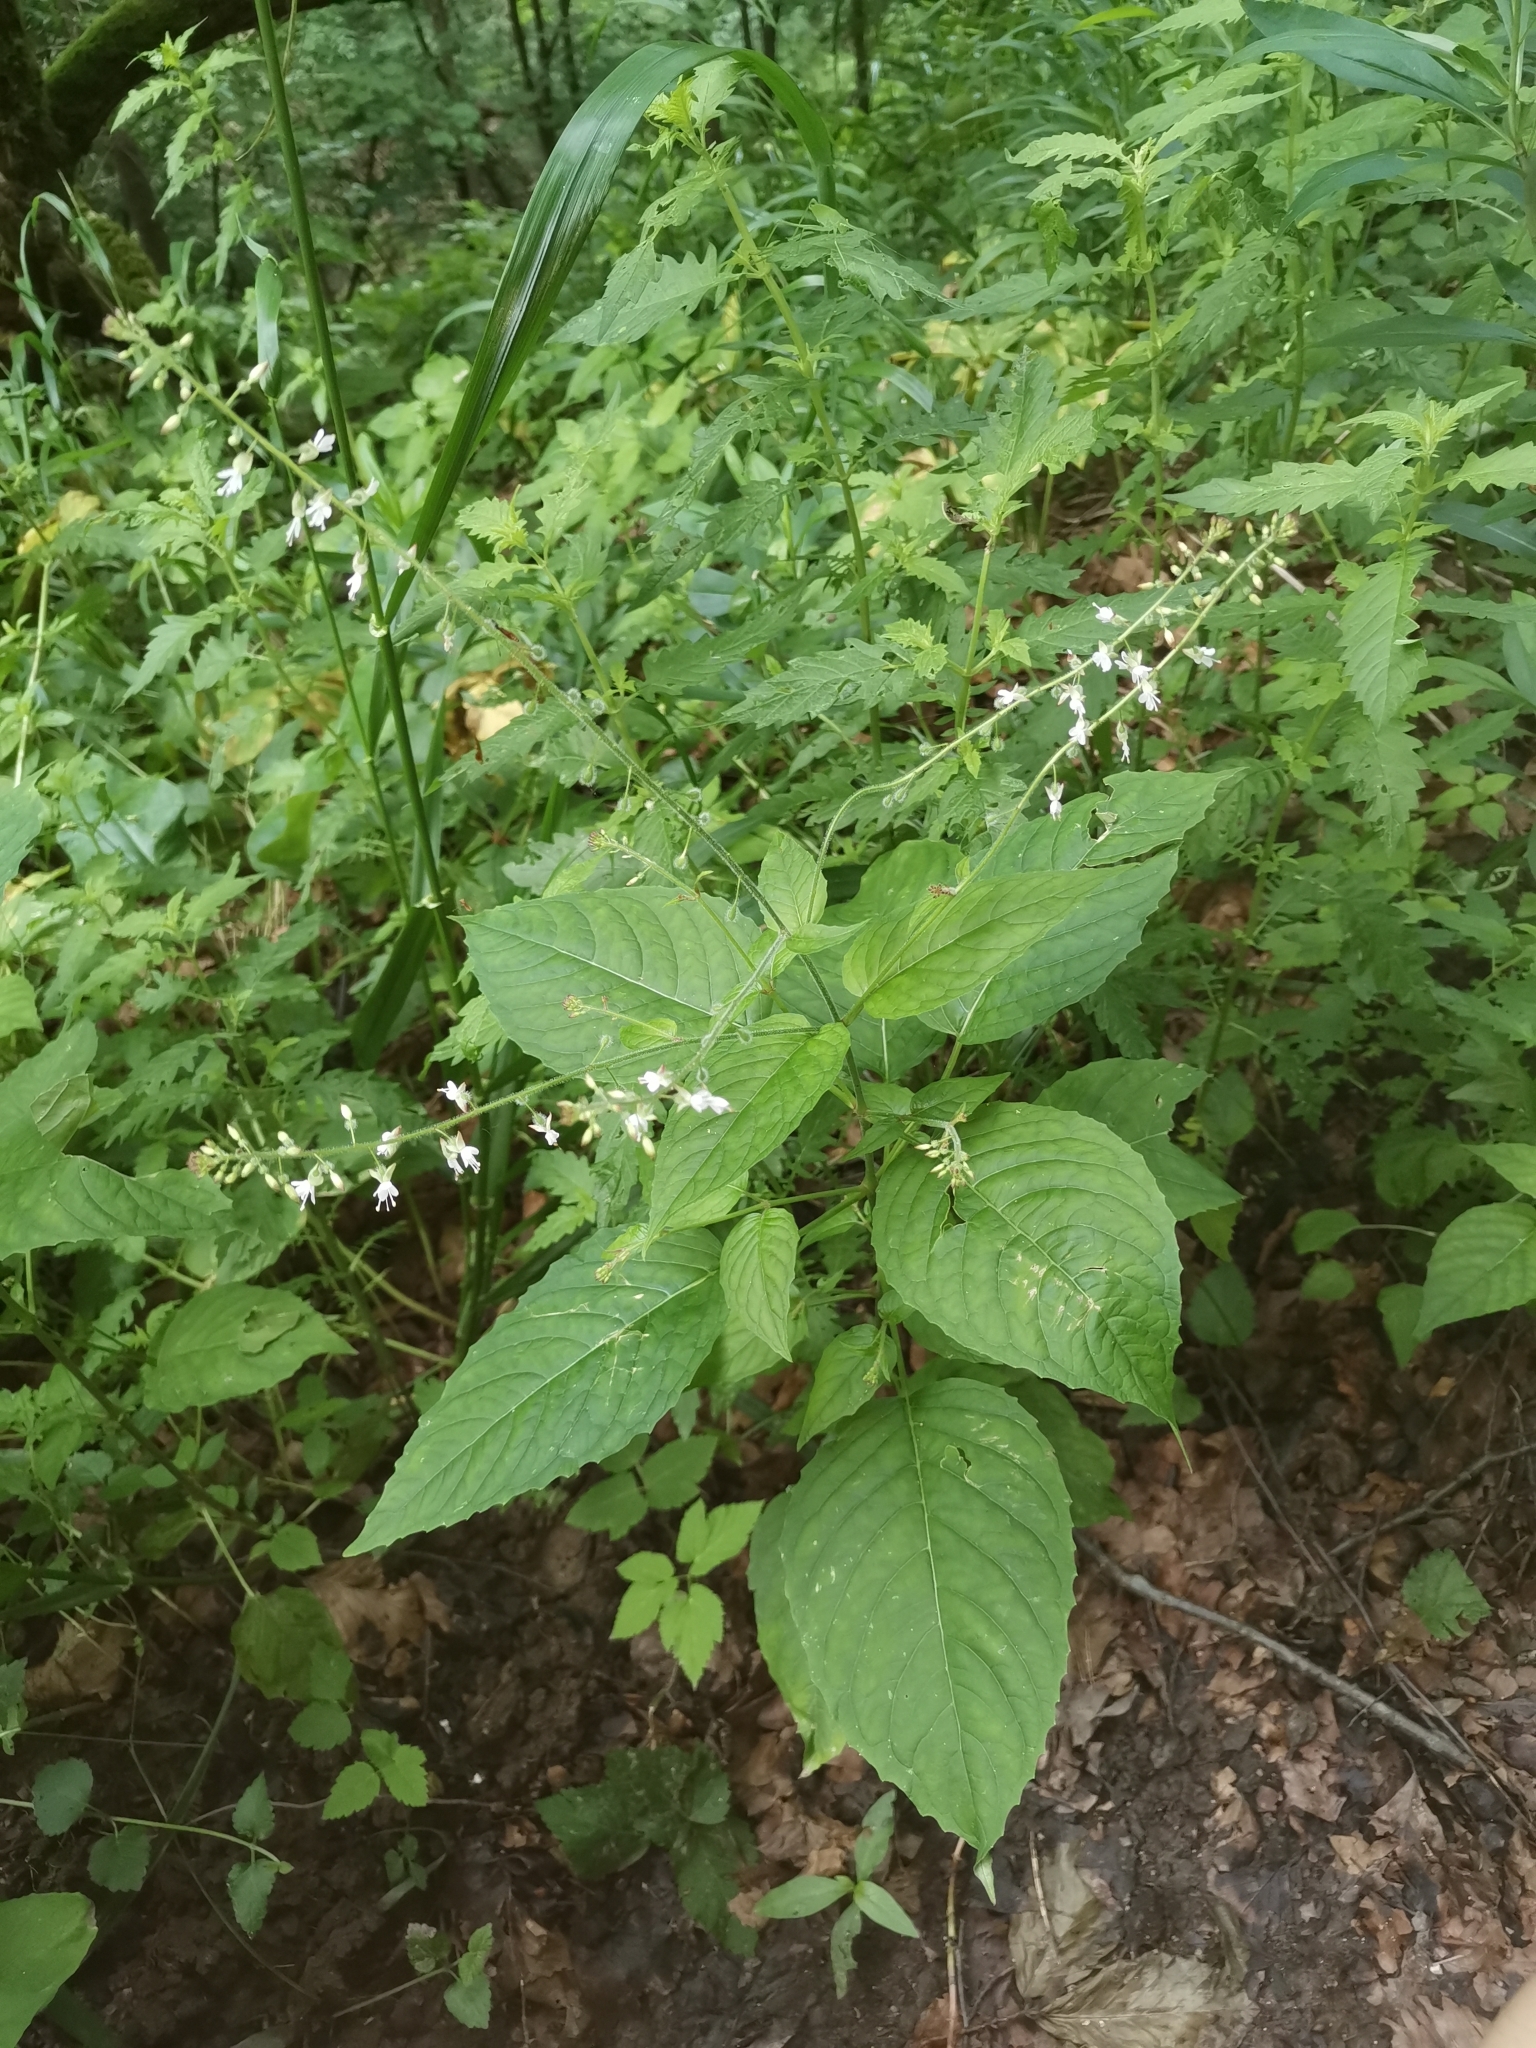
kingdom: Plantae
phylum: Tracheophyta
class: Magnoliopsida
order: Myrtales
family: Onagraceae
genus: Circaea
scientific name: Circaea lutetiana
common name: Enchanter's-nightshade
